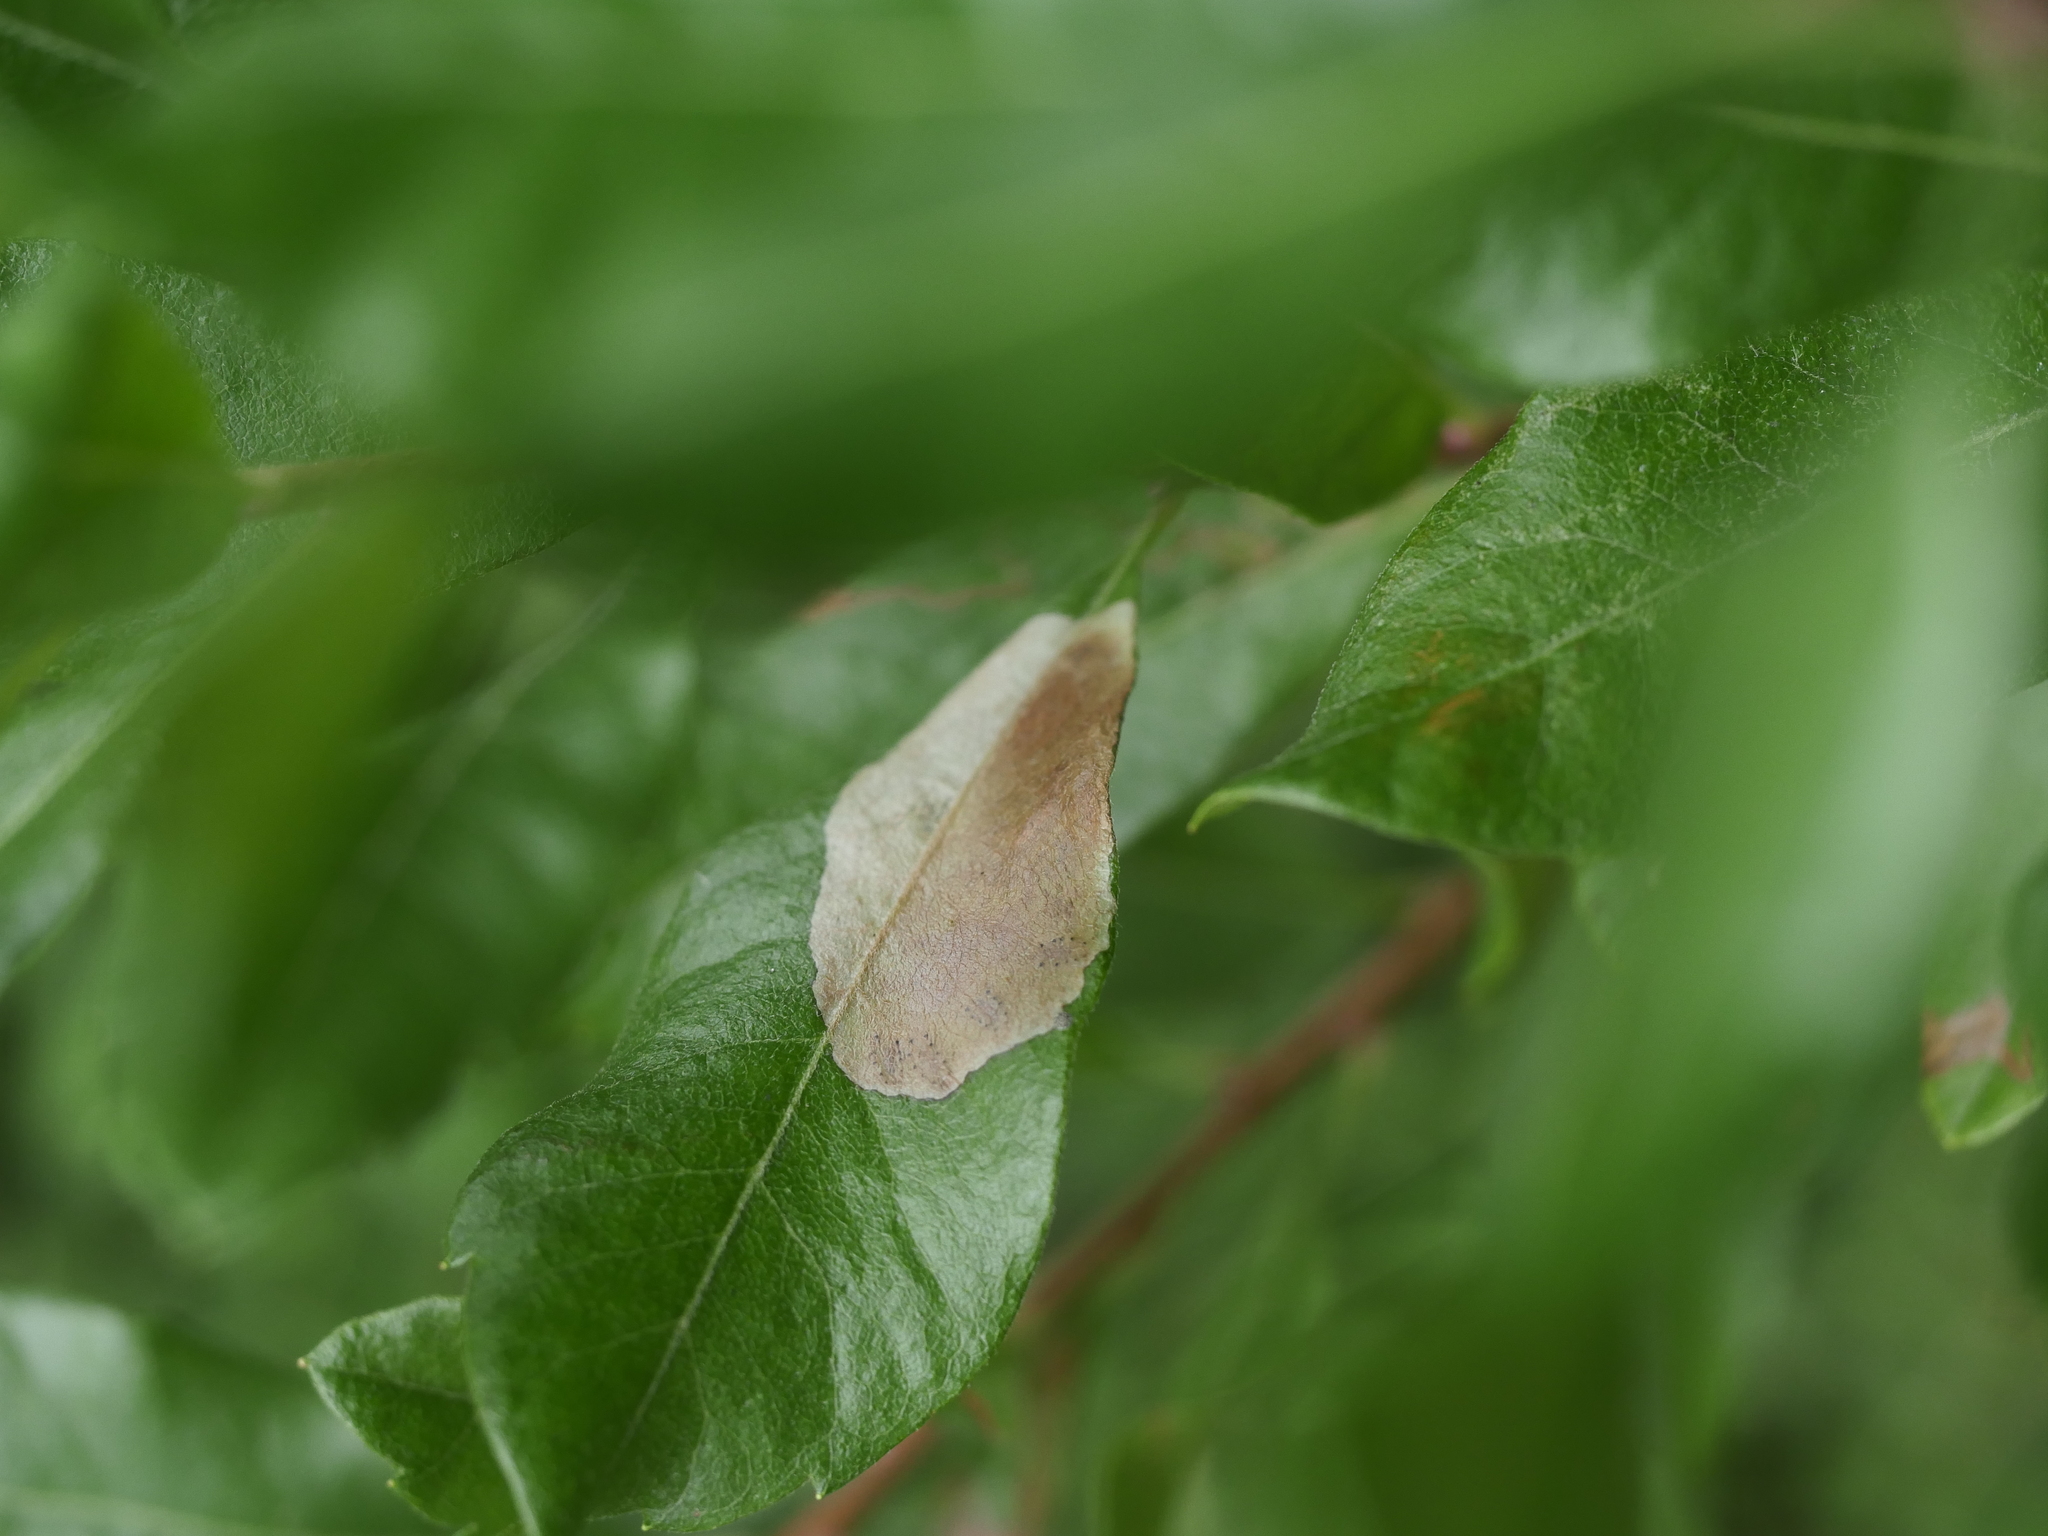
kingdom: Animalia
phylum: Arthropoda
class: Insecta
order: Lepidoptera
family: Gracillariidae
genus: Cameraria
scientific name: Cameraria picturatella
